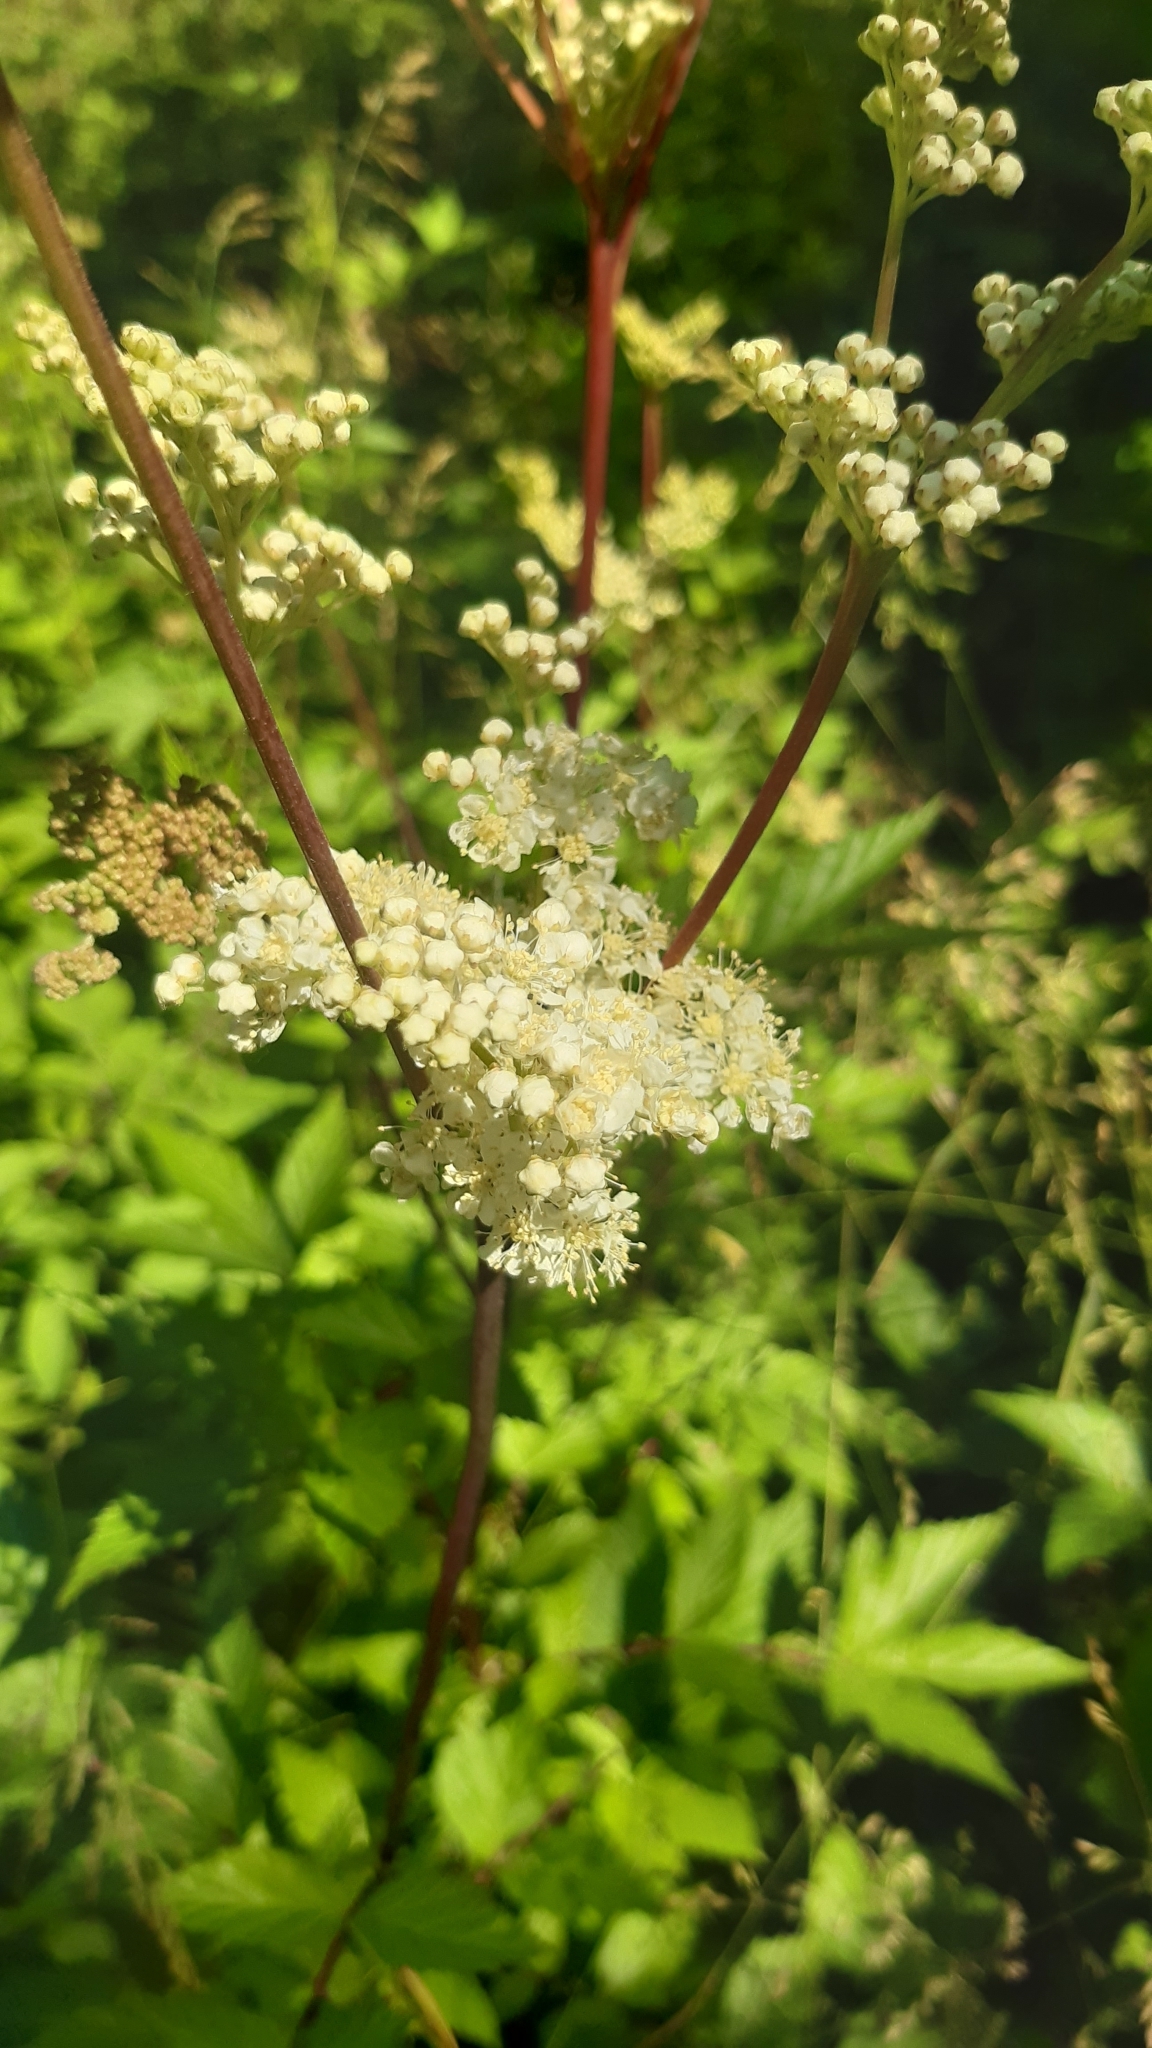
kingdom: Plantae
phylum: Tracheophyta
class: Magnoliopsida
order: Rosales
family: Rosaceae
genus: Filipendula
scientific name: Filipendula ulmaria
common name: Meadowsweet
